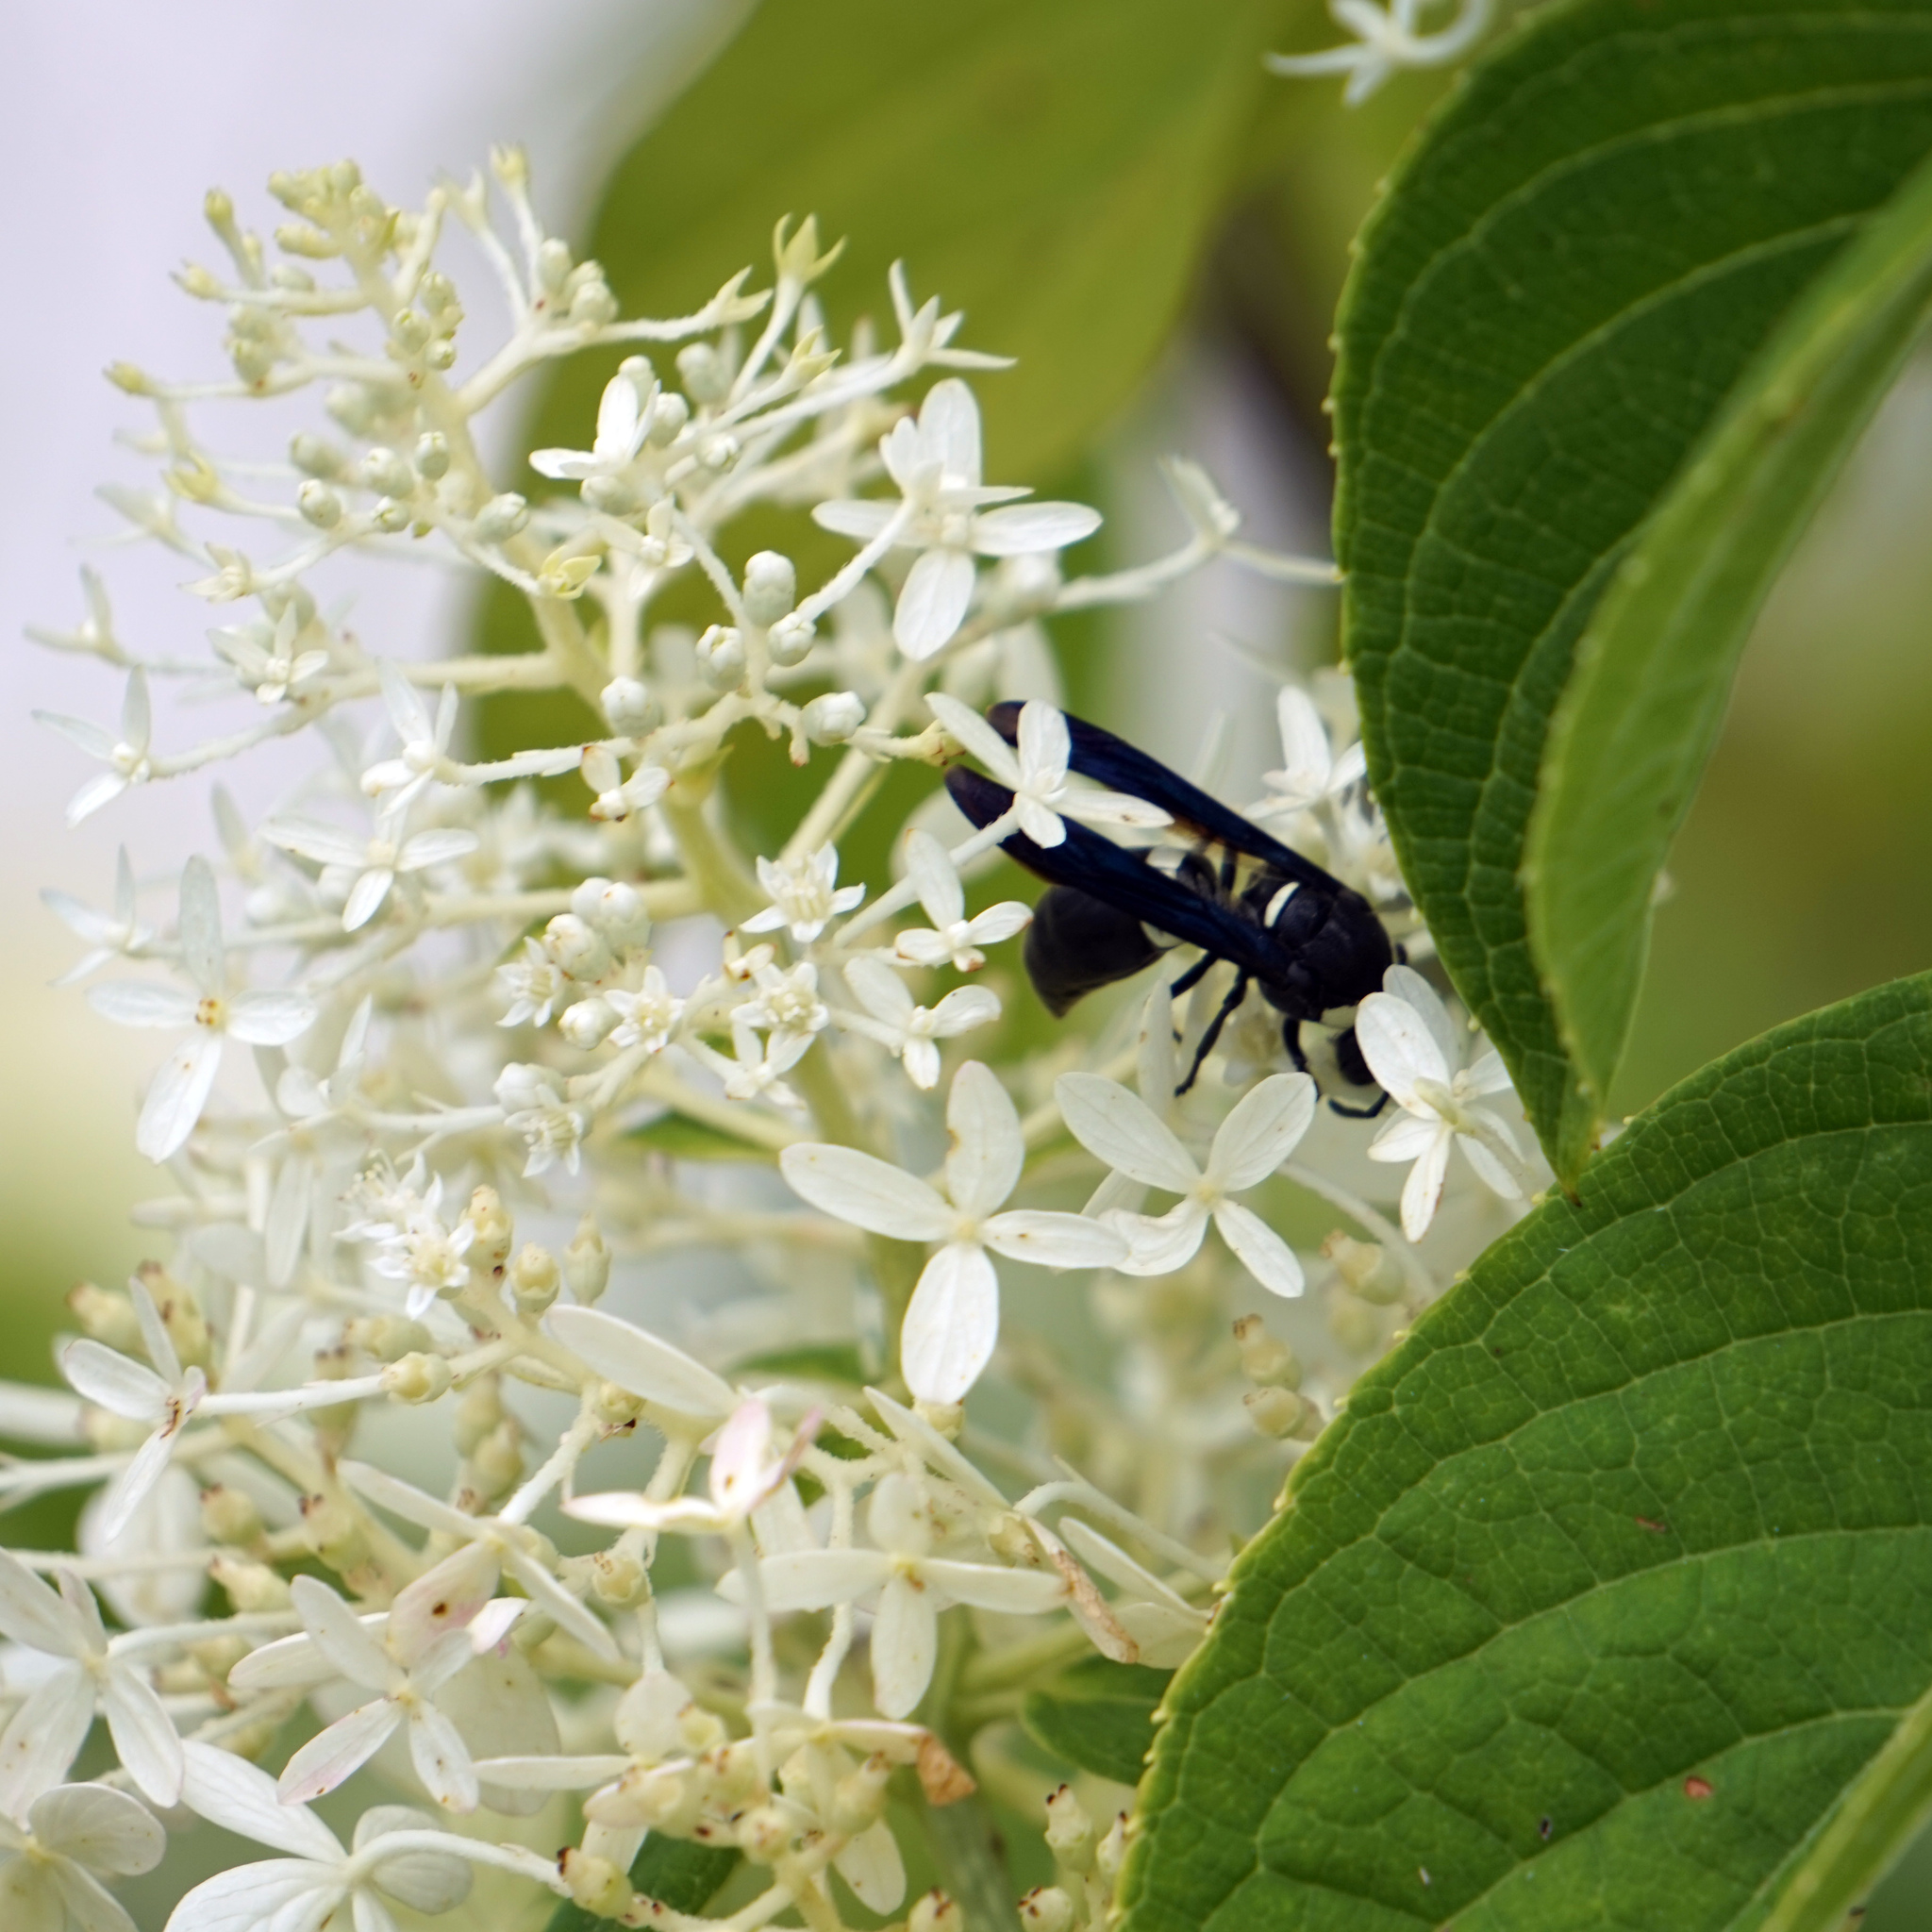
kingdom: Animalia
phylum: Arthropoda
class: Insecta
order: Hymenoptera
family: Eumenidae
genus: Monobia
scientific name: Monobia quadridens
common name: Four-toothed mason wasp
